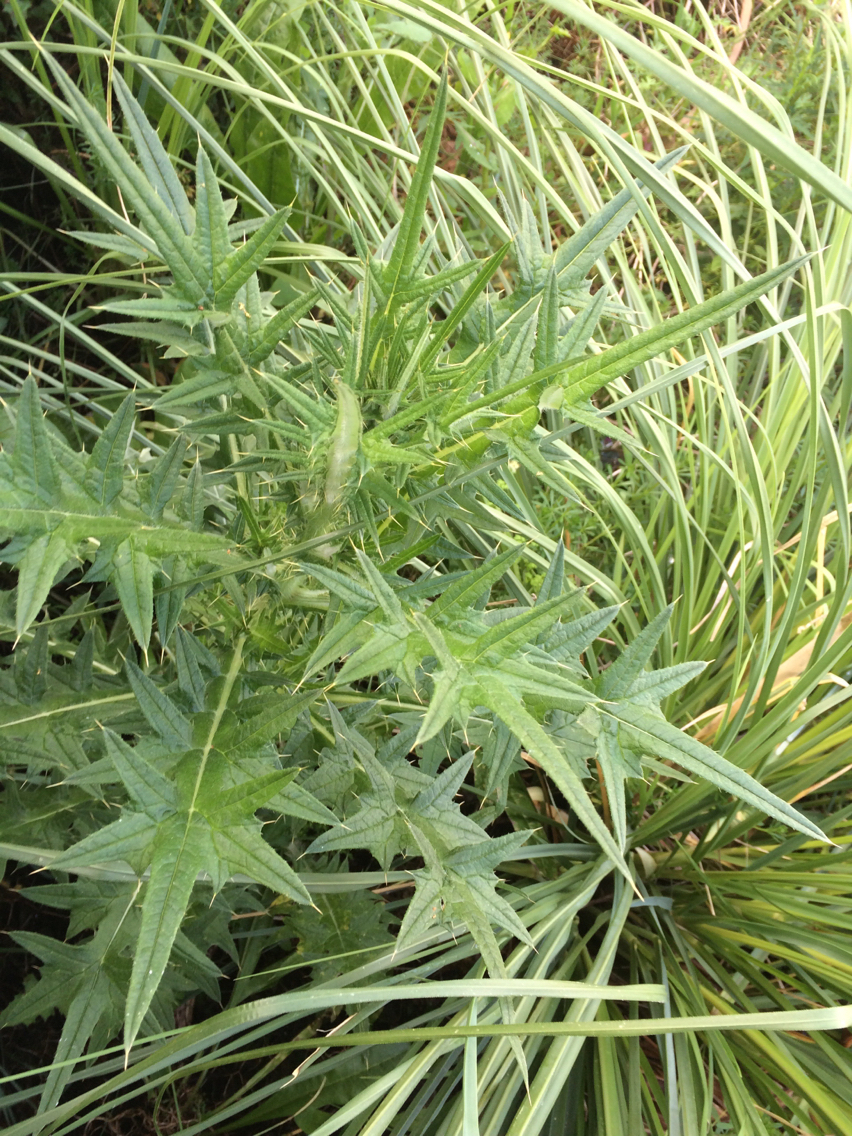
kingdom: Plantae
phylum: Tracheophyta
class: Magnoliopsida
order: Asterales
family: Asteraceae
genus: Cirsium
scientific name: Cirsium vulgare
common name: Bull thistle
